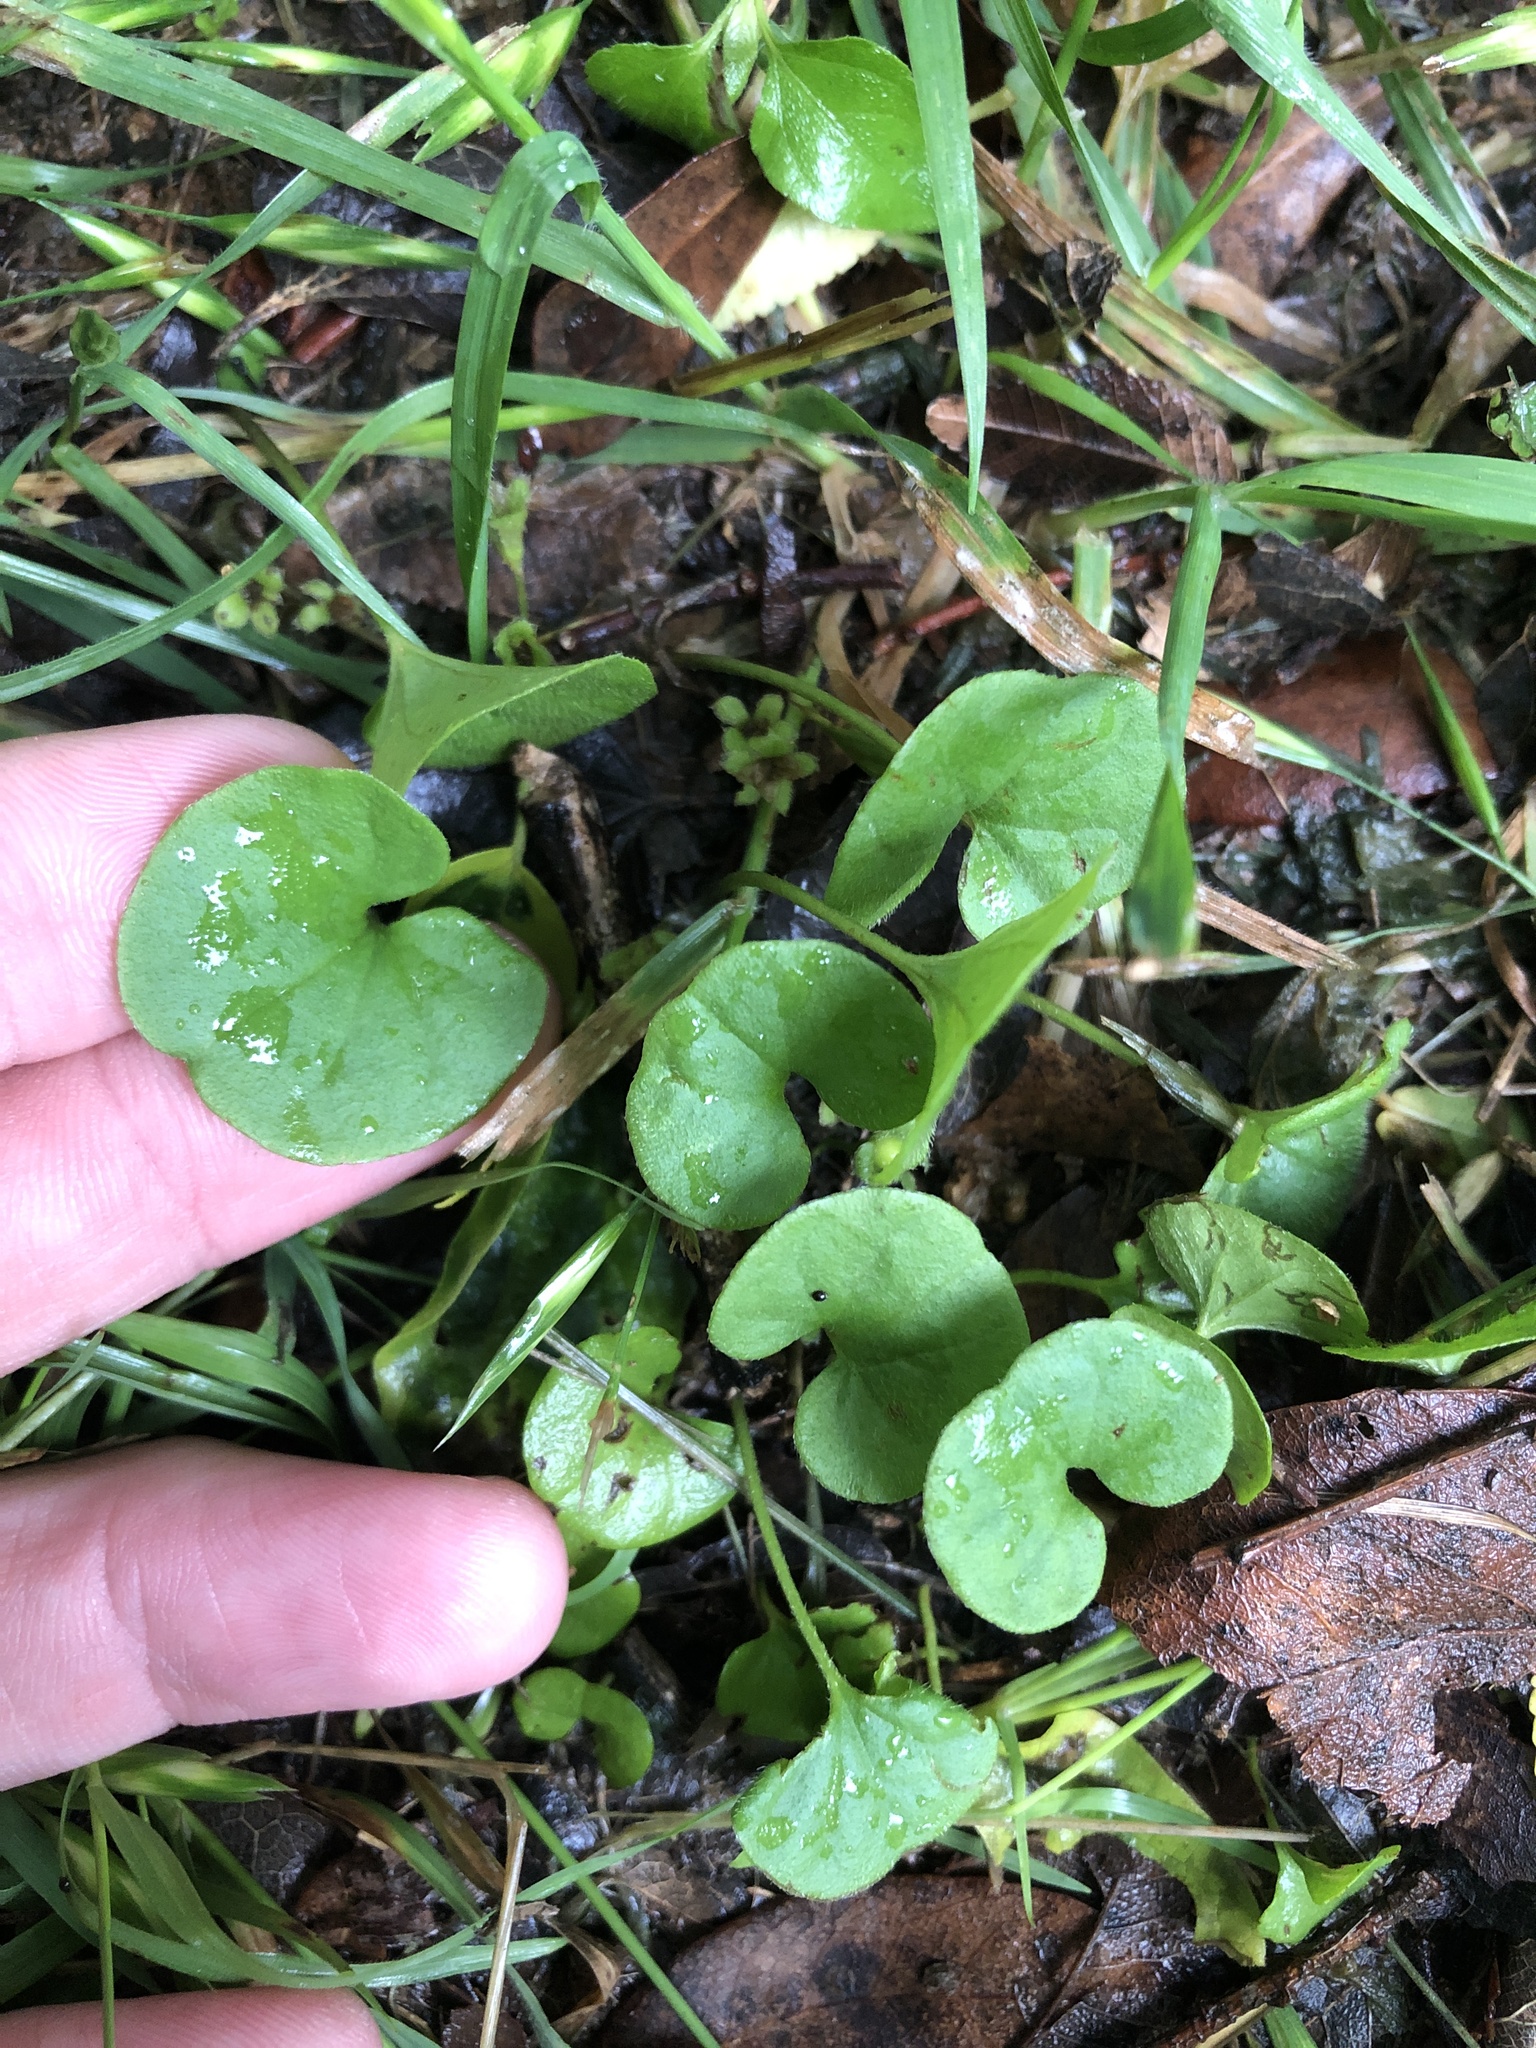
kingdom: Plantae
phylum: Tracheophyta
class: Magnoliopsida
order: Solanales
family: Convolvulaceae
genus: Dichondra
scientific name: Dichondra carolinensis
